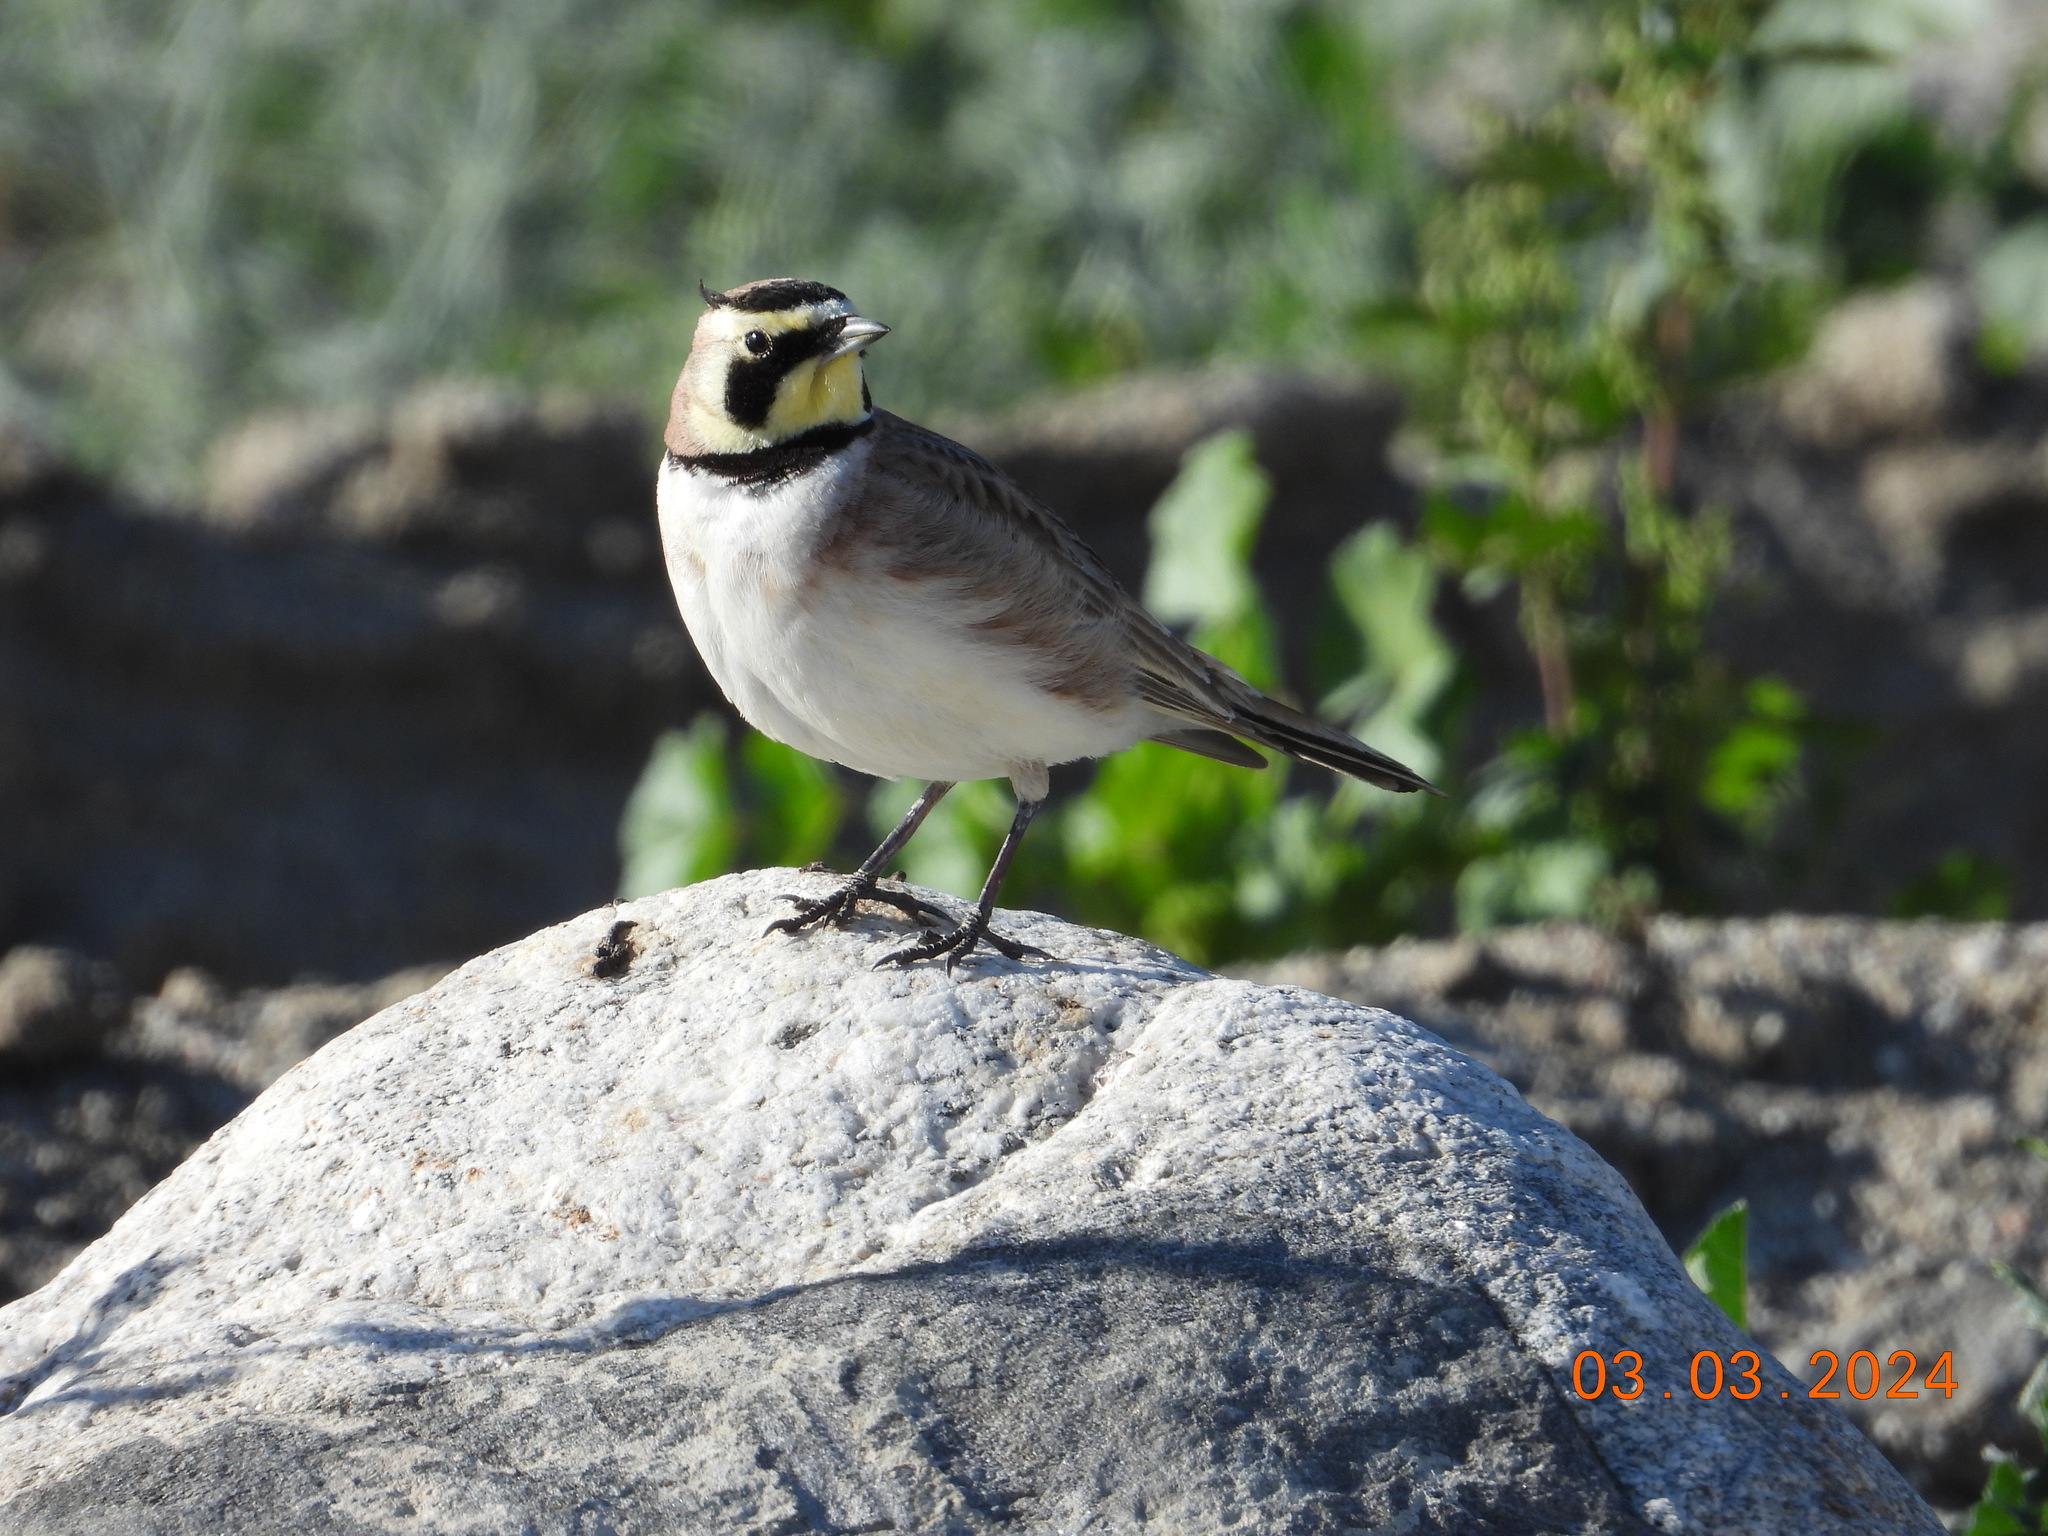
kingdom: Animalia
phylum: Chordata
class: Aves
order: Passeriformes
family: Alaudidae
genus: Eremophila
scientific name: Eremophila alpestris
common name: Horned lark
